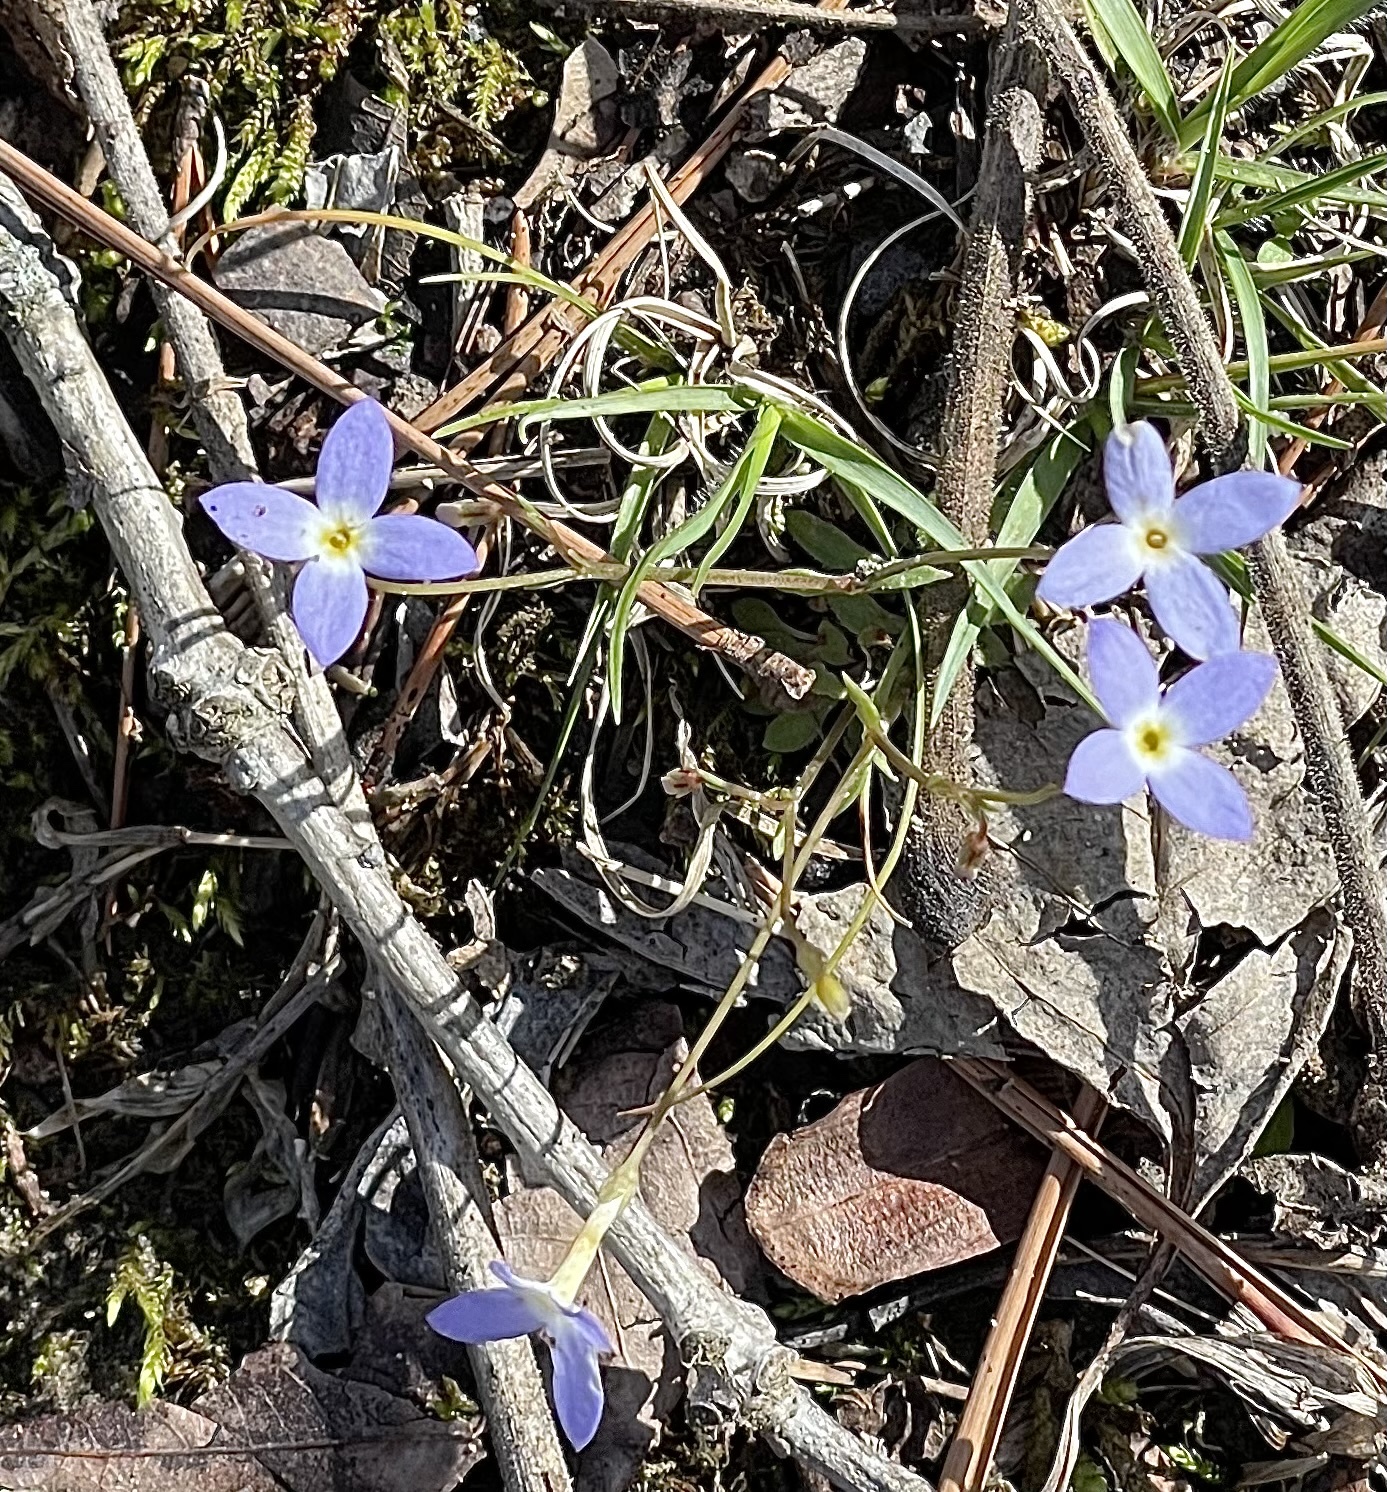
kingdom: Plantae
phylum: Tracheophyta
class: Magnoliopsida
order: Gentianales
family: Rubiaceae
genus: Houstonia
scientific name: Houstonia caerulea
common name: Bluets
